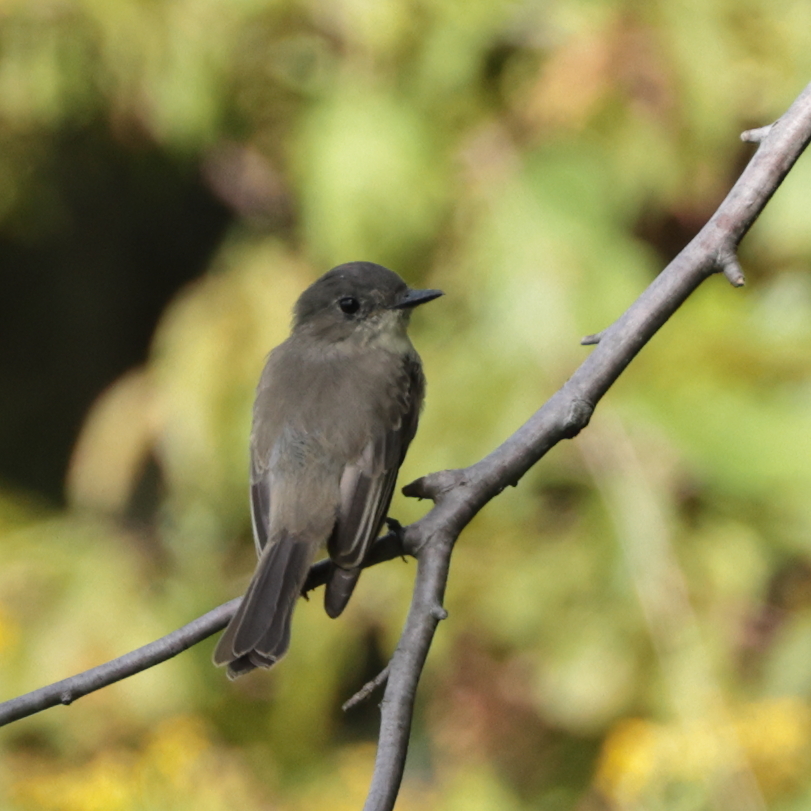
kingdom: Animalia
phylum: Chordata
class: Aves
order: Passeriformes
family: Tyrannidae
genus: Sayornis
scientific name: Sayornis phoebe
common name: Eastern phoebe
